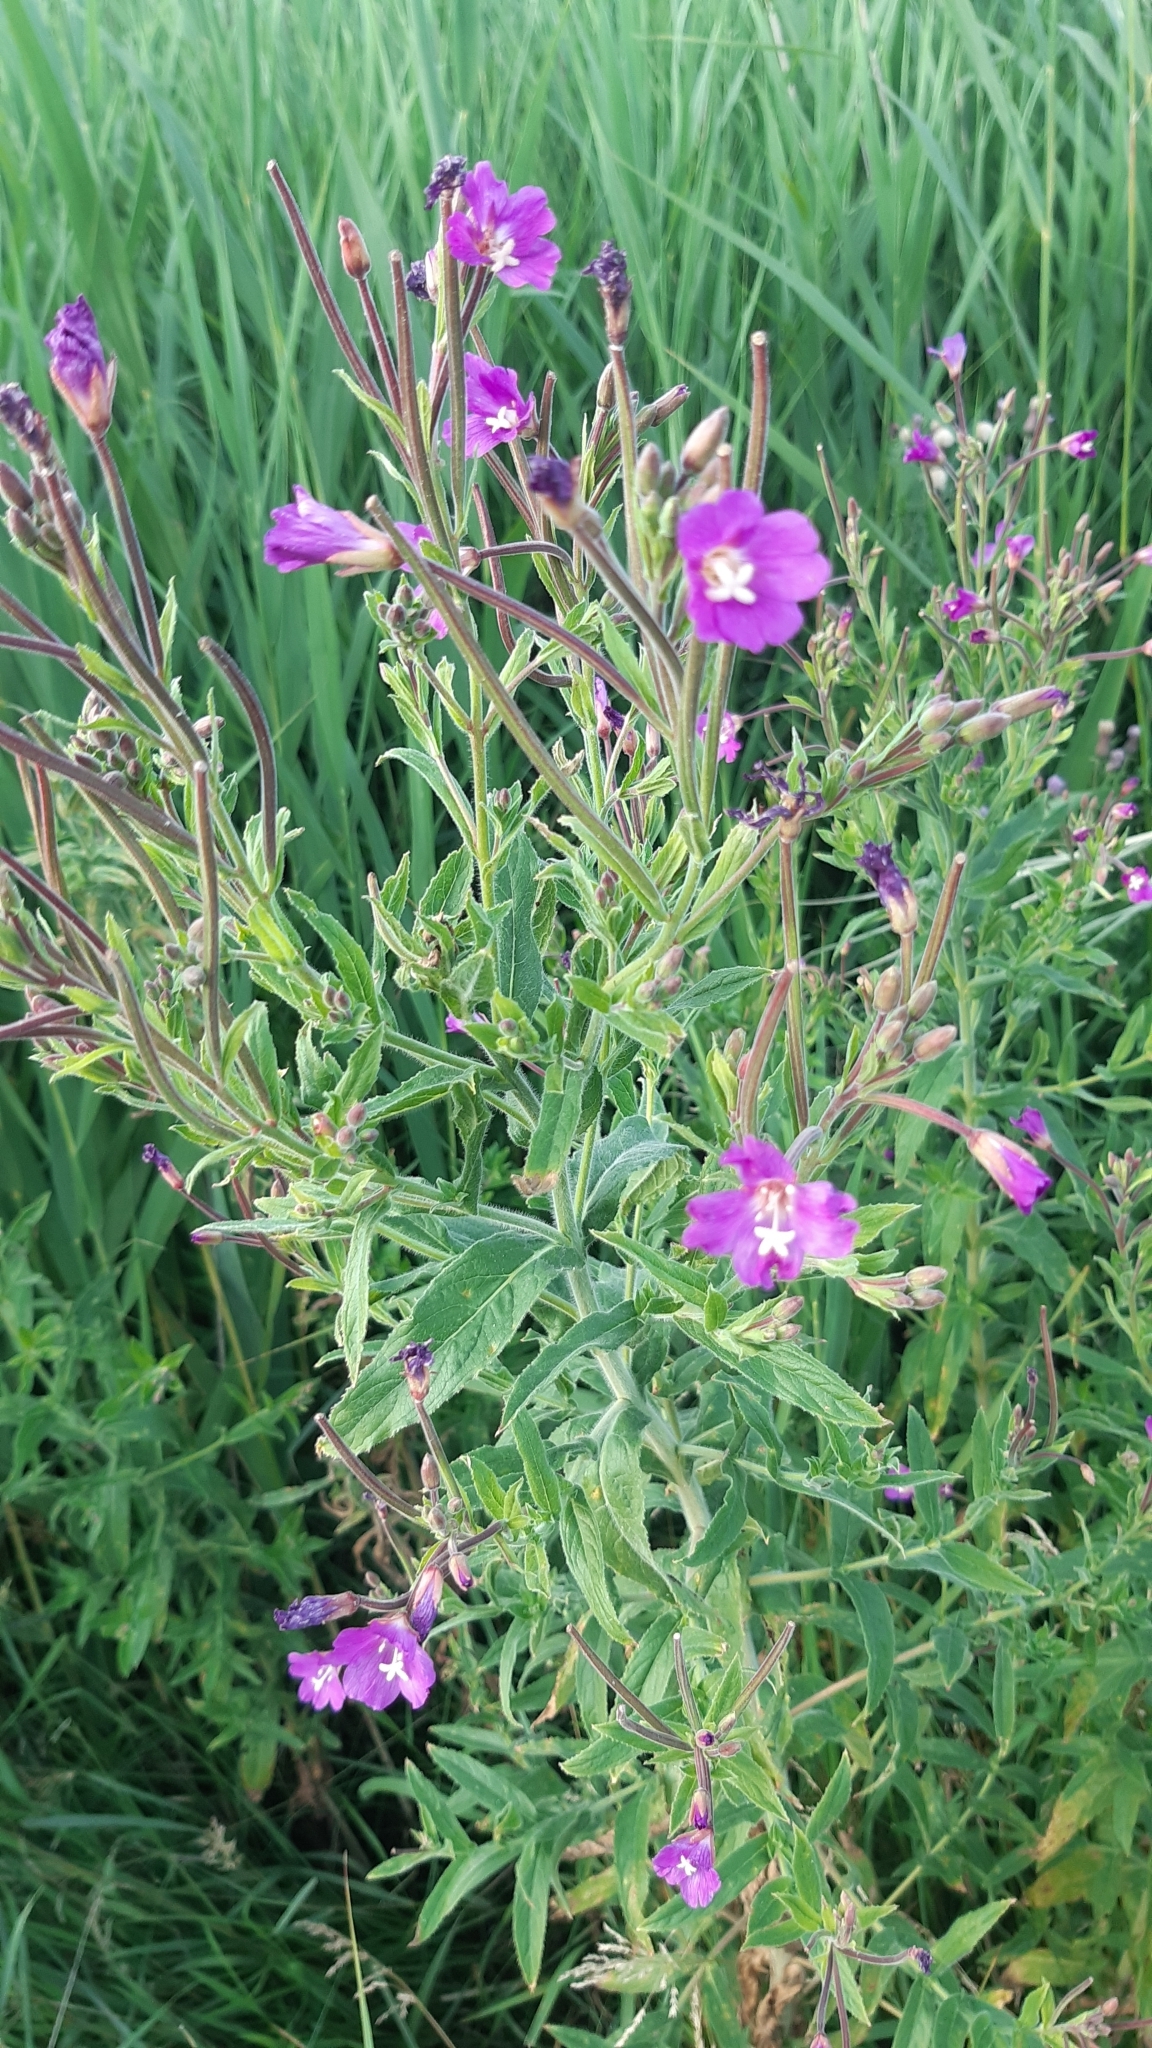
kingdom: Plantae
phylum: Tracheophyta
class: Magnoliopsida
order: Myrtales
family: Onagraceae
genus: Epilobium
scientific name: Epilobium hirsutum
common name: Great willowherb
